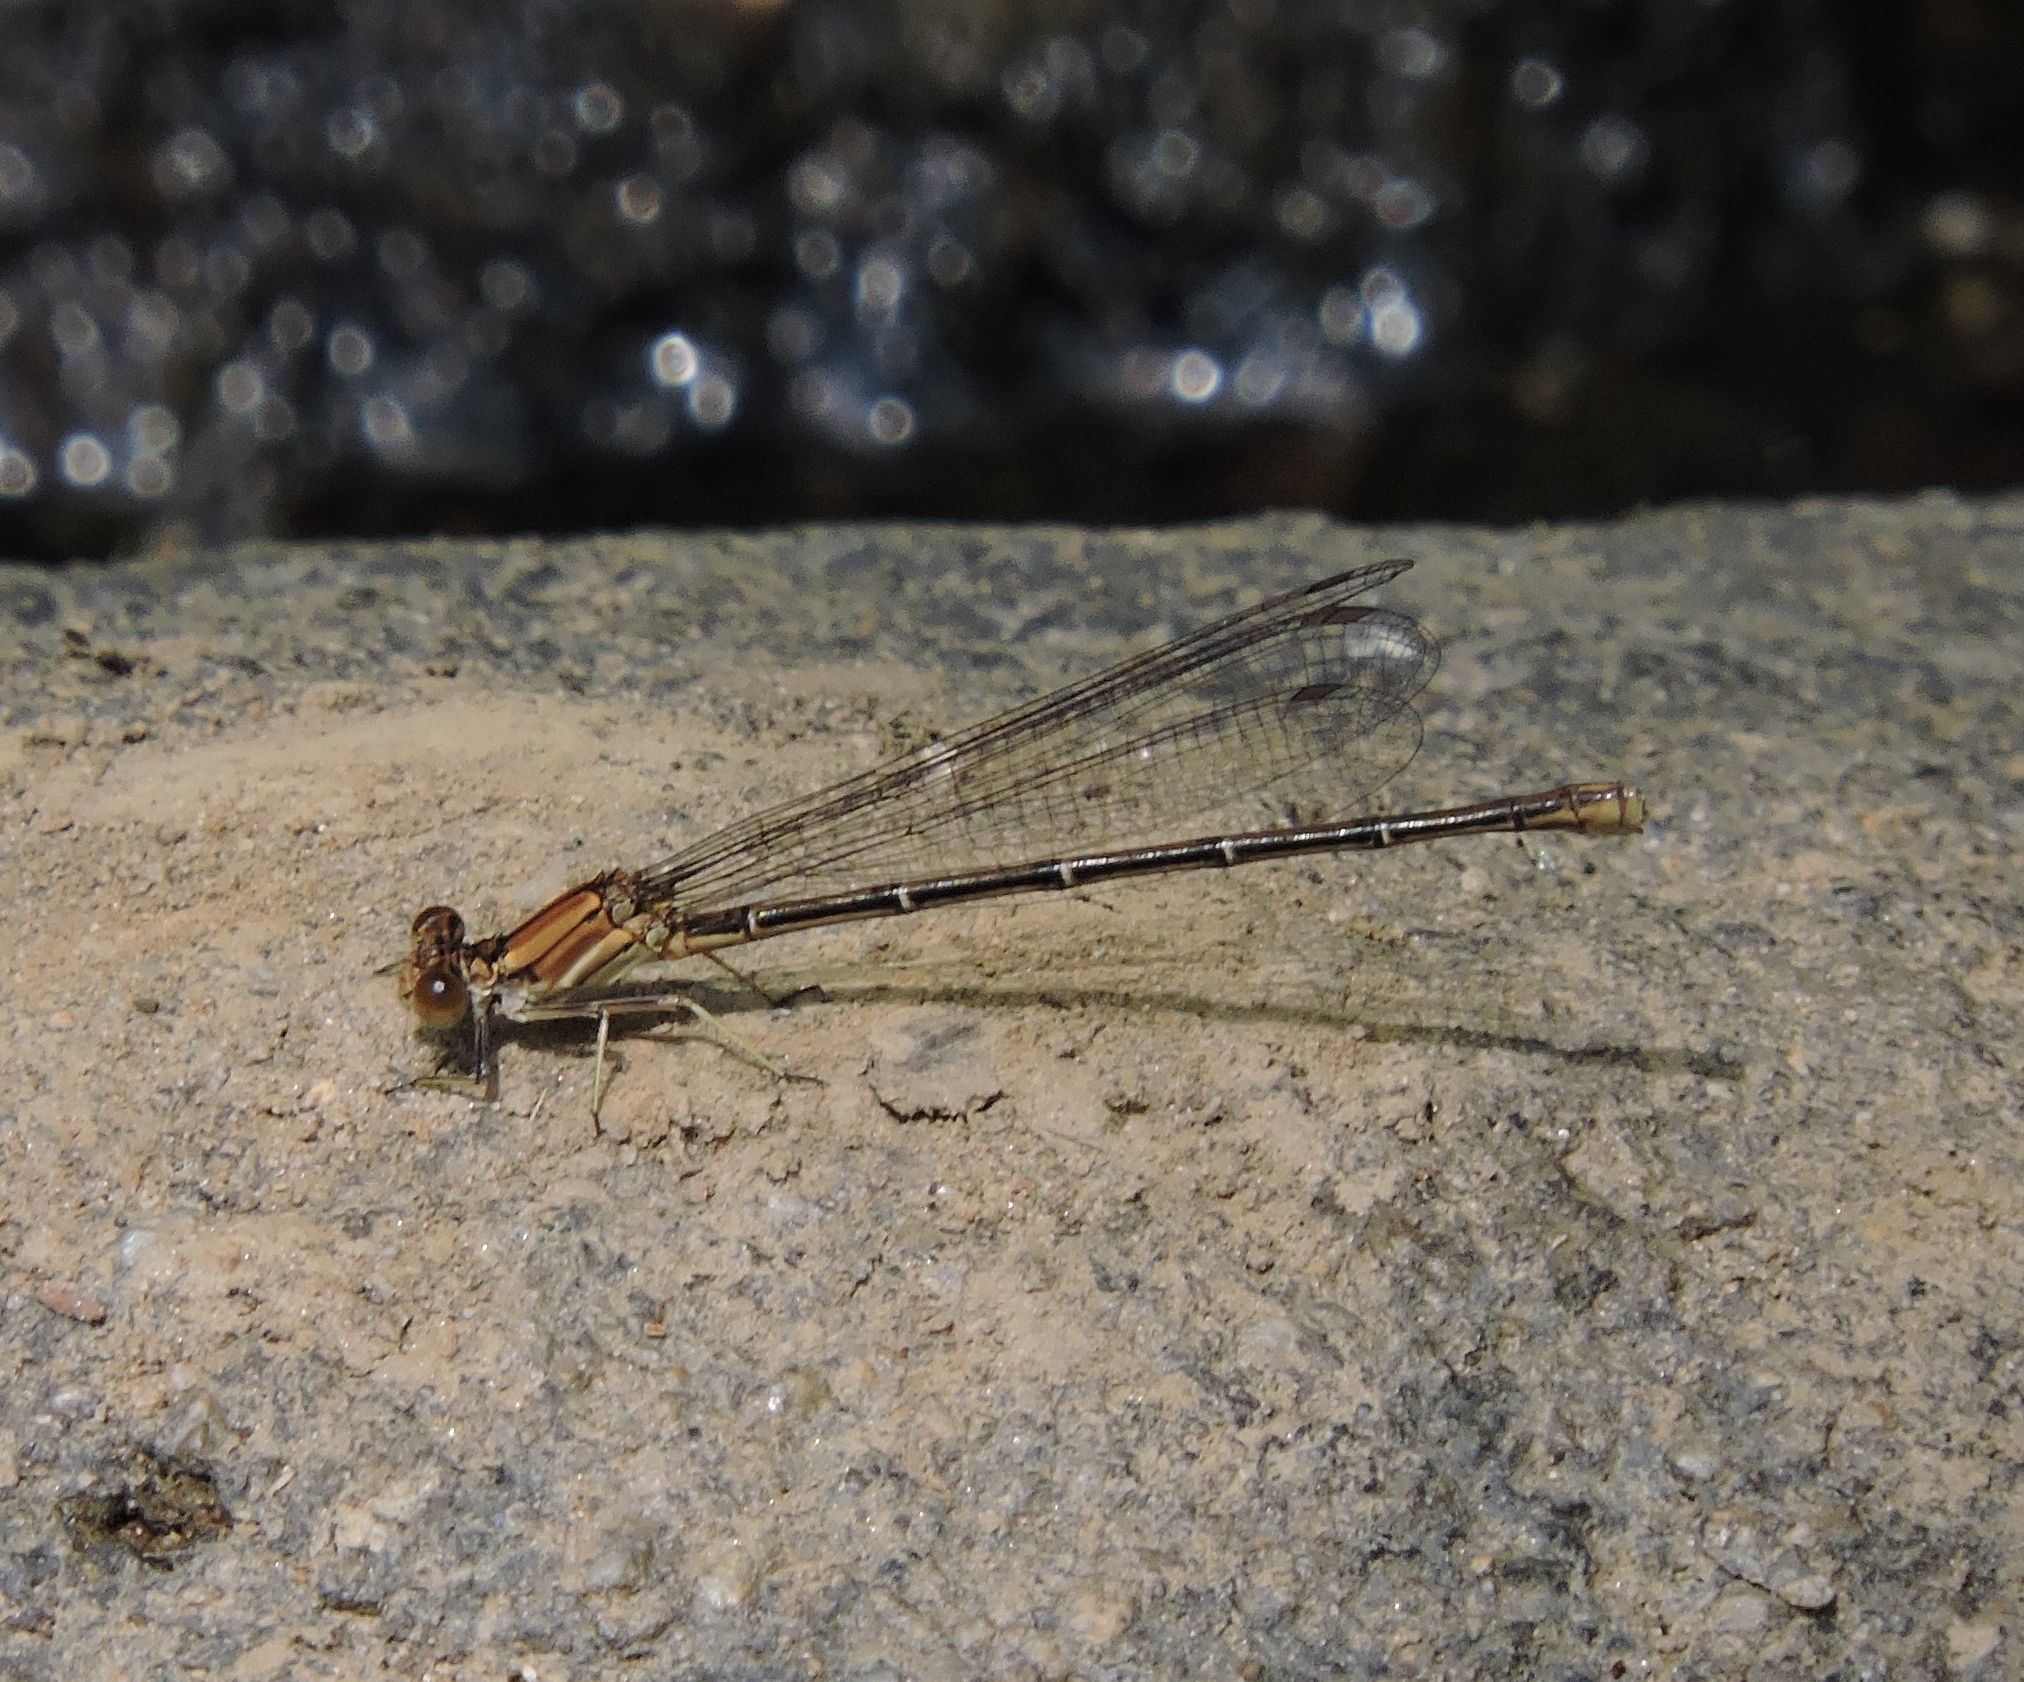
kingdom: Animalia
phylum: Arthropoda
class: Insecta
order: Odonata
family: Coenagrionidae
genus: Argia
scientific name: Argia moesta
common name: Powdered dancer
